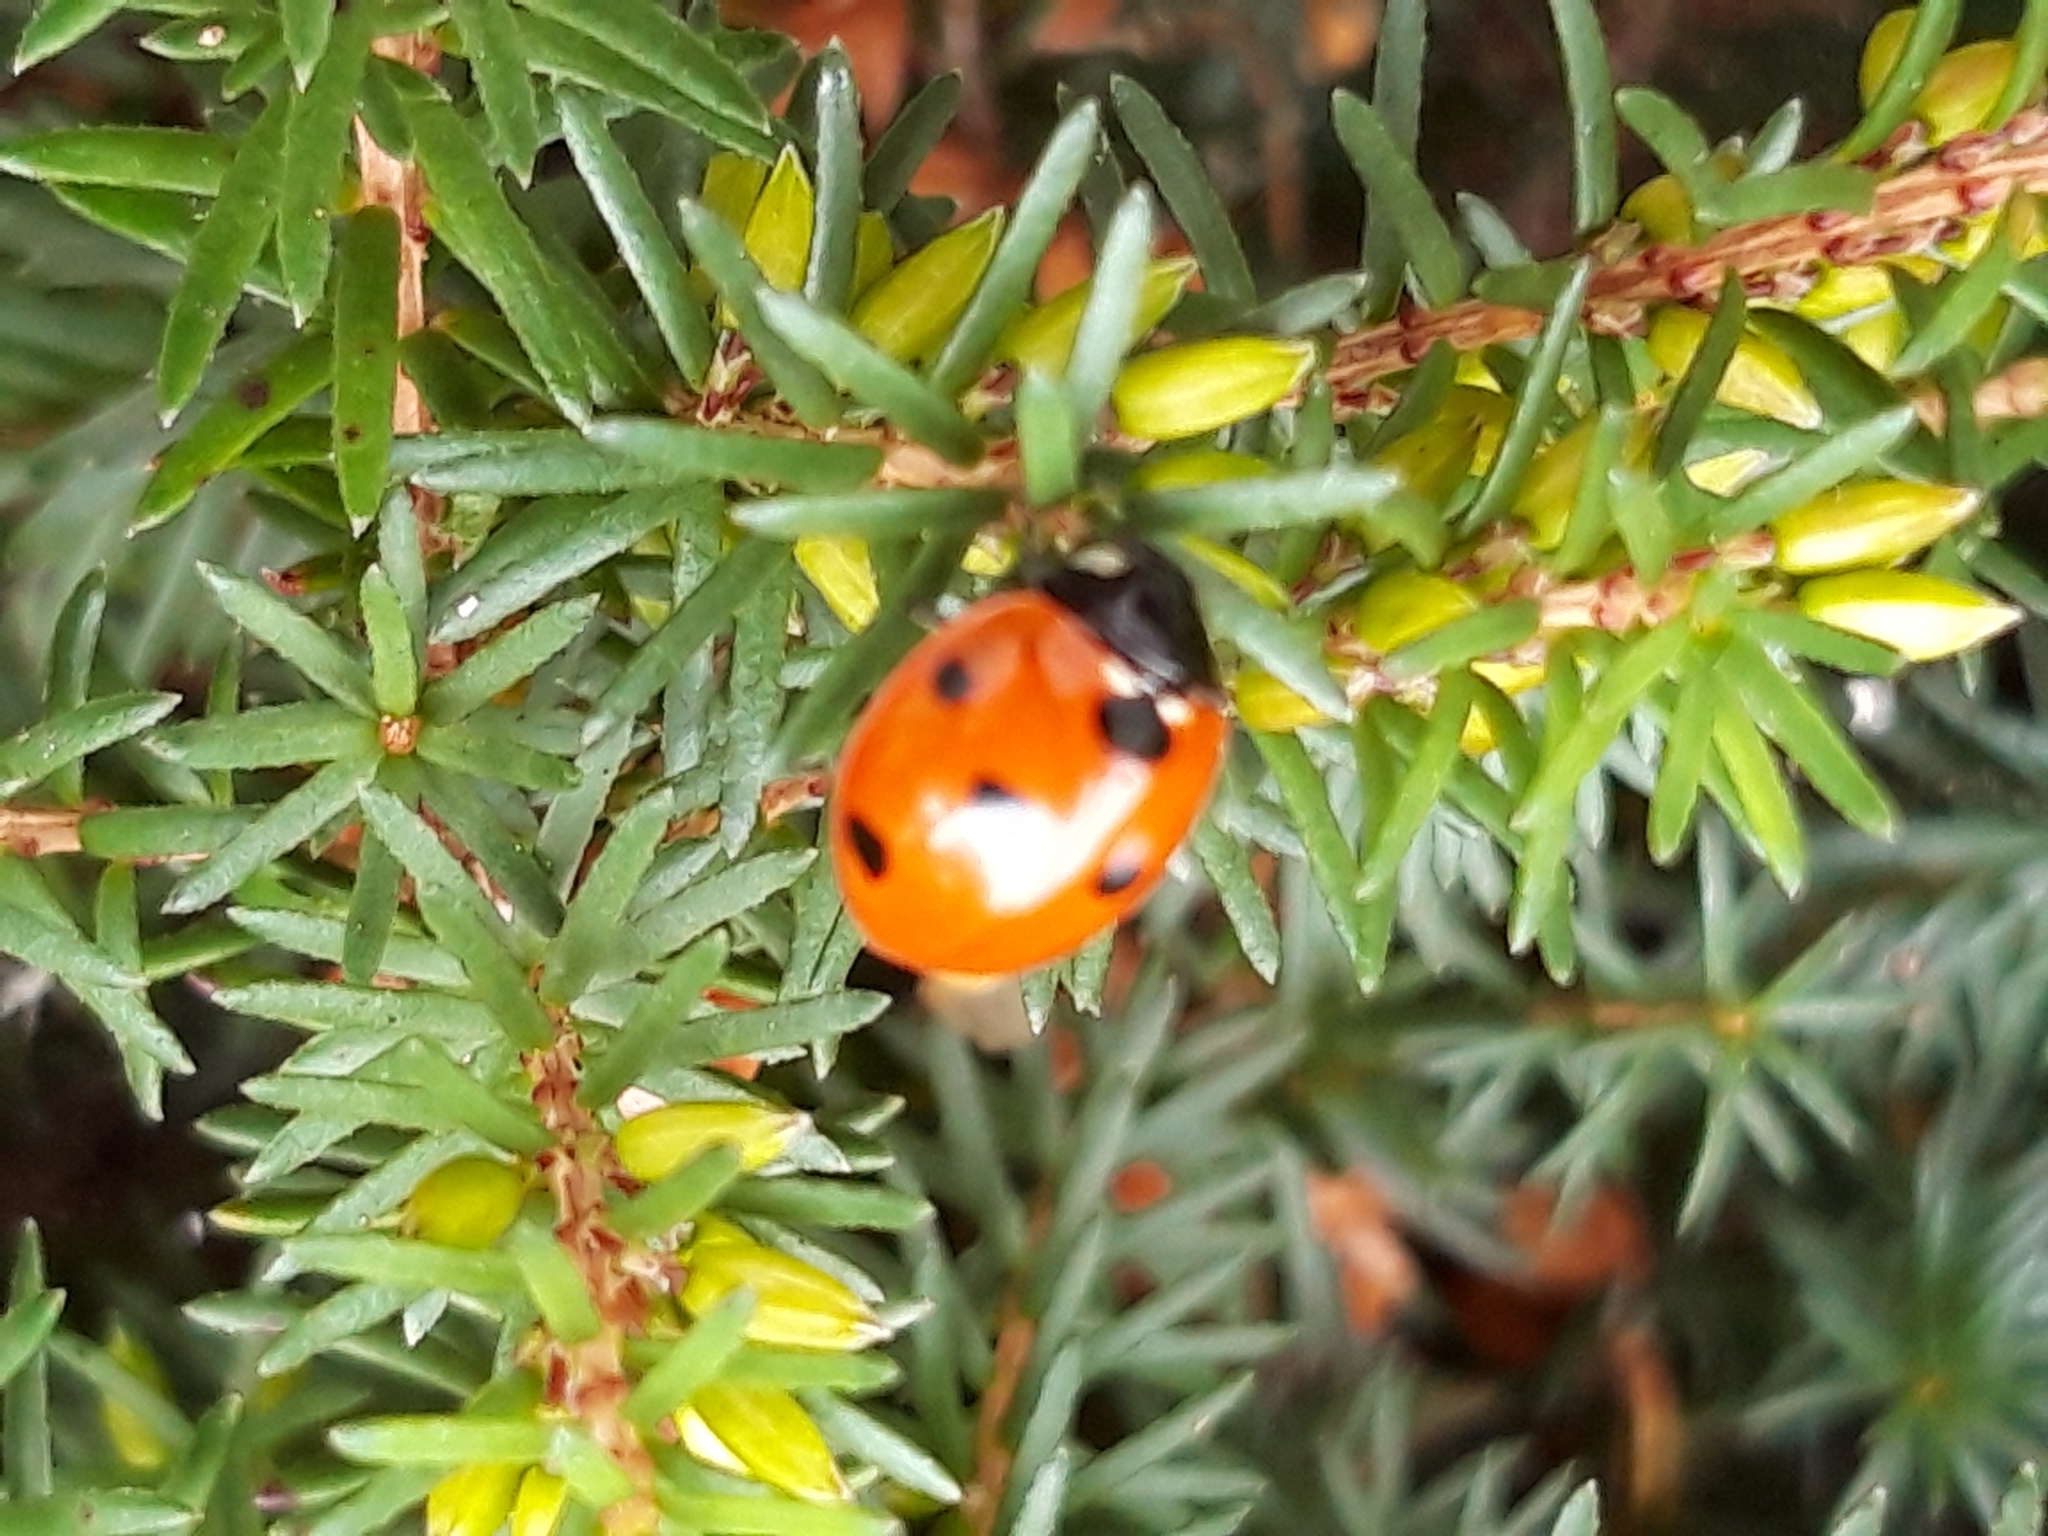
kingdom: Animalia
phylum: Arthropoda
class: Insecta
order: Coleoptera
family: Coccinellidae
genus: Coccinella
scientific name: Coccinella septempunctata
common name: Sevenspotted lady beetle
